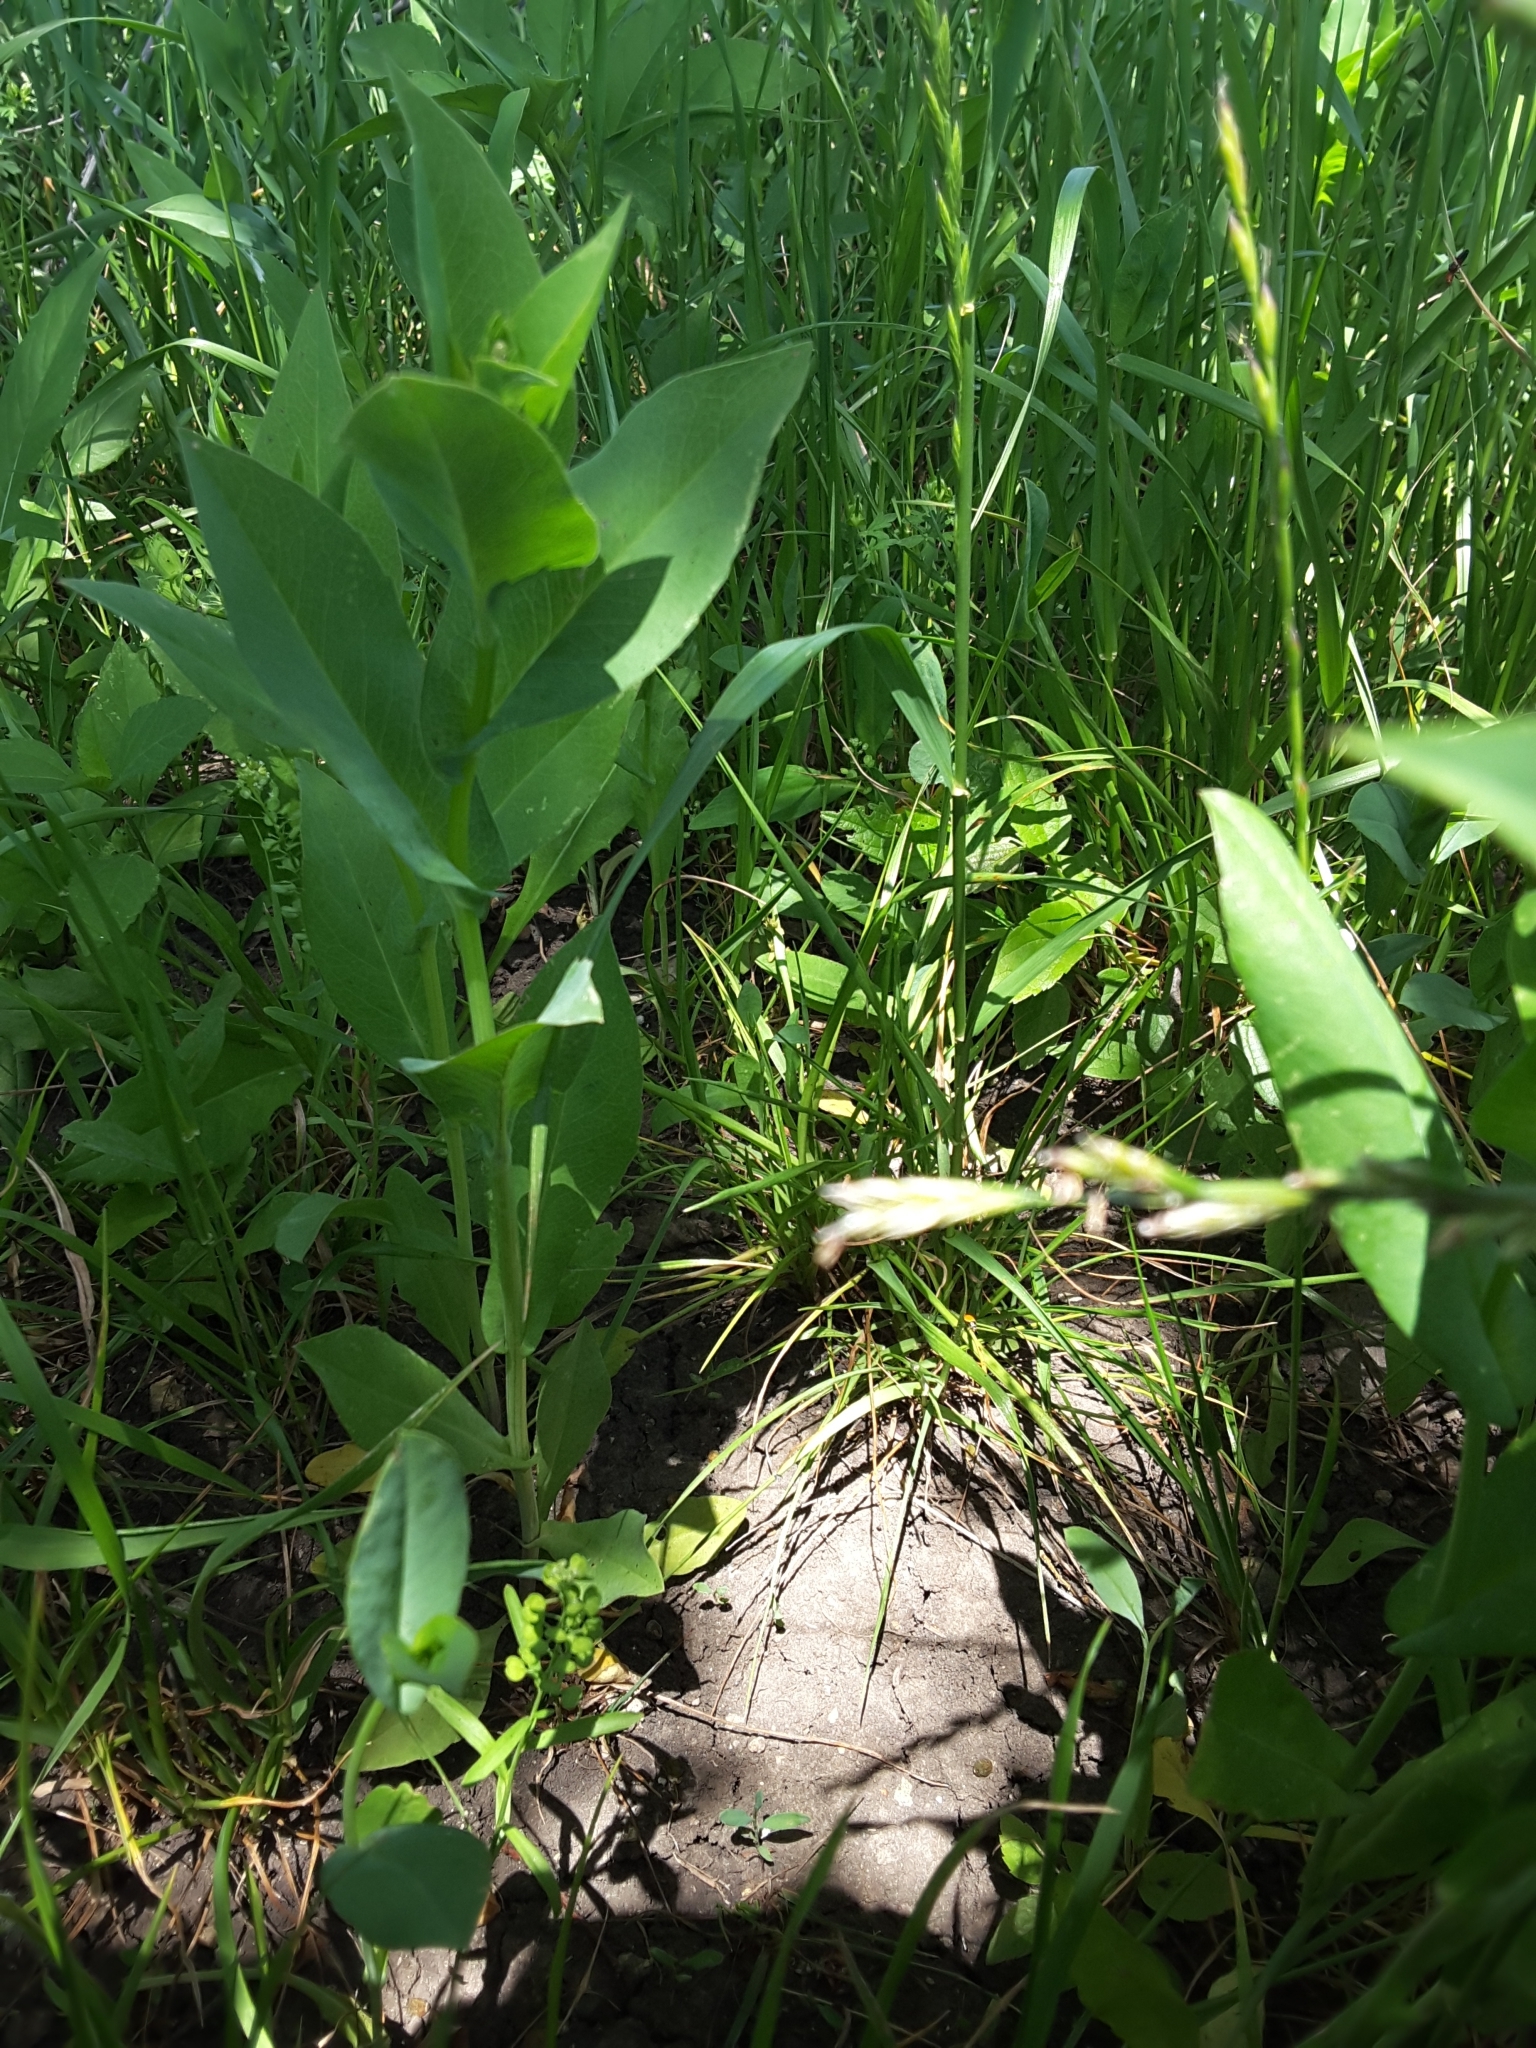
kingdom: Plantae
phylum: Tracheophyta
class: Magnoliopsida
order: Asterales
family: Asteraceae
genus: Rudbeckia
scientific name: Rudbeckia amplexicaulis
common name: Clasping-leaf coneflower
